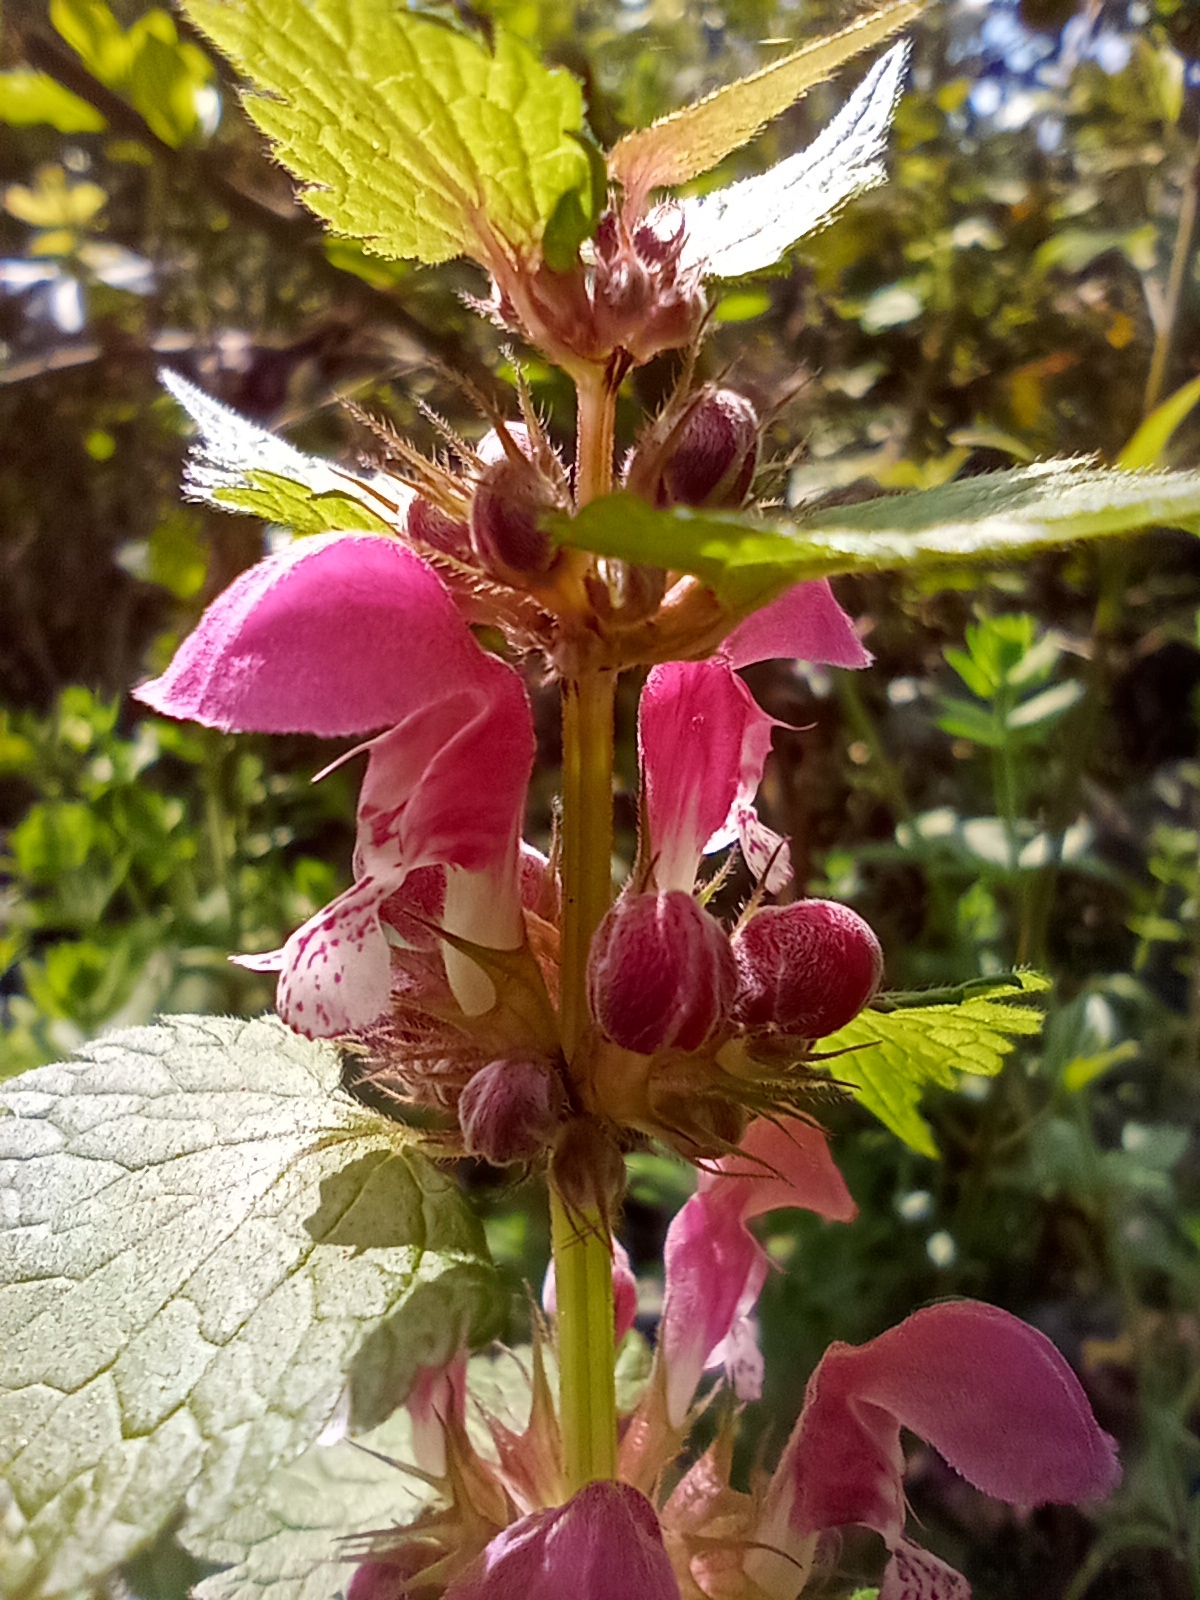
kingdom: Plantae
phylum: Tracheophyta
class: Magnoliopsida
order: Lamiales
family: Lamiaceae
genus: Lamium
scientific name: Lamium maculatum
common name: Spotted dead-nettle
